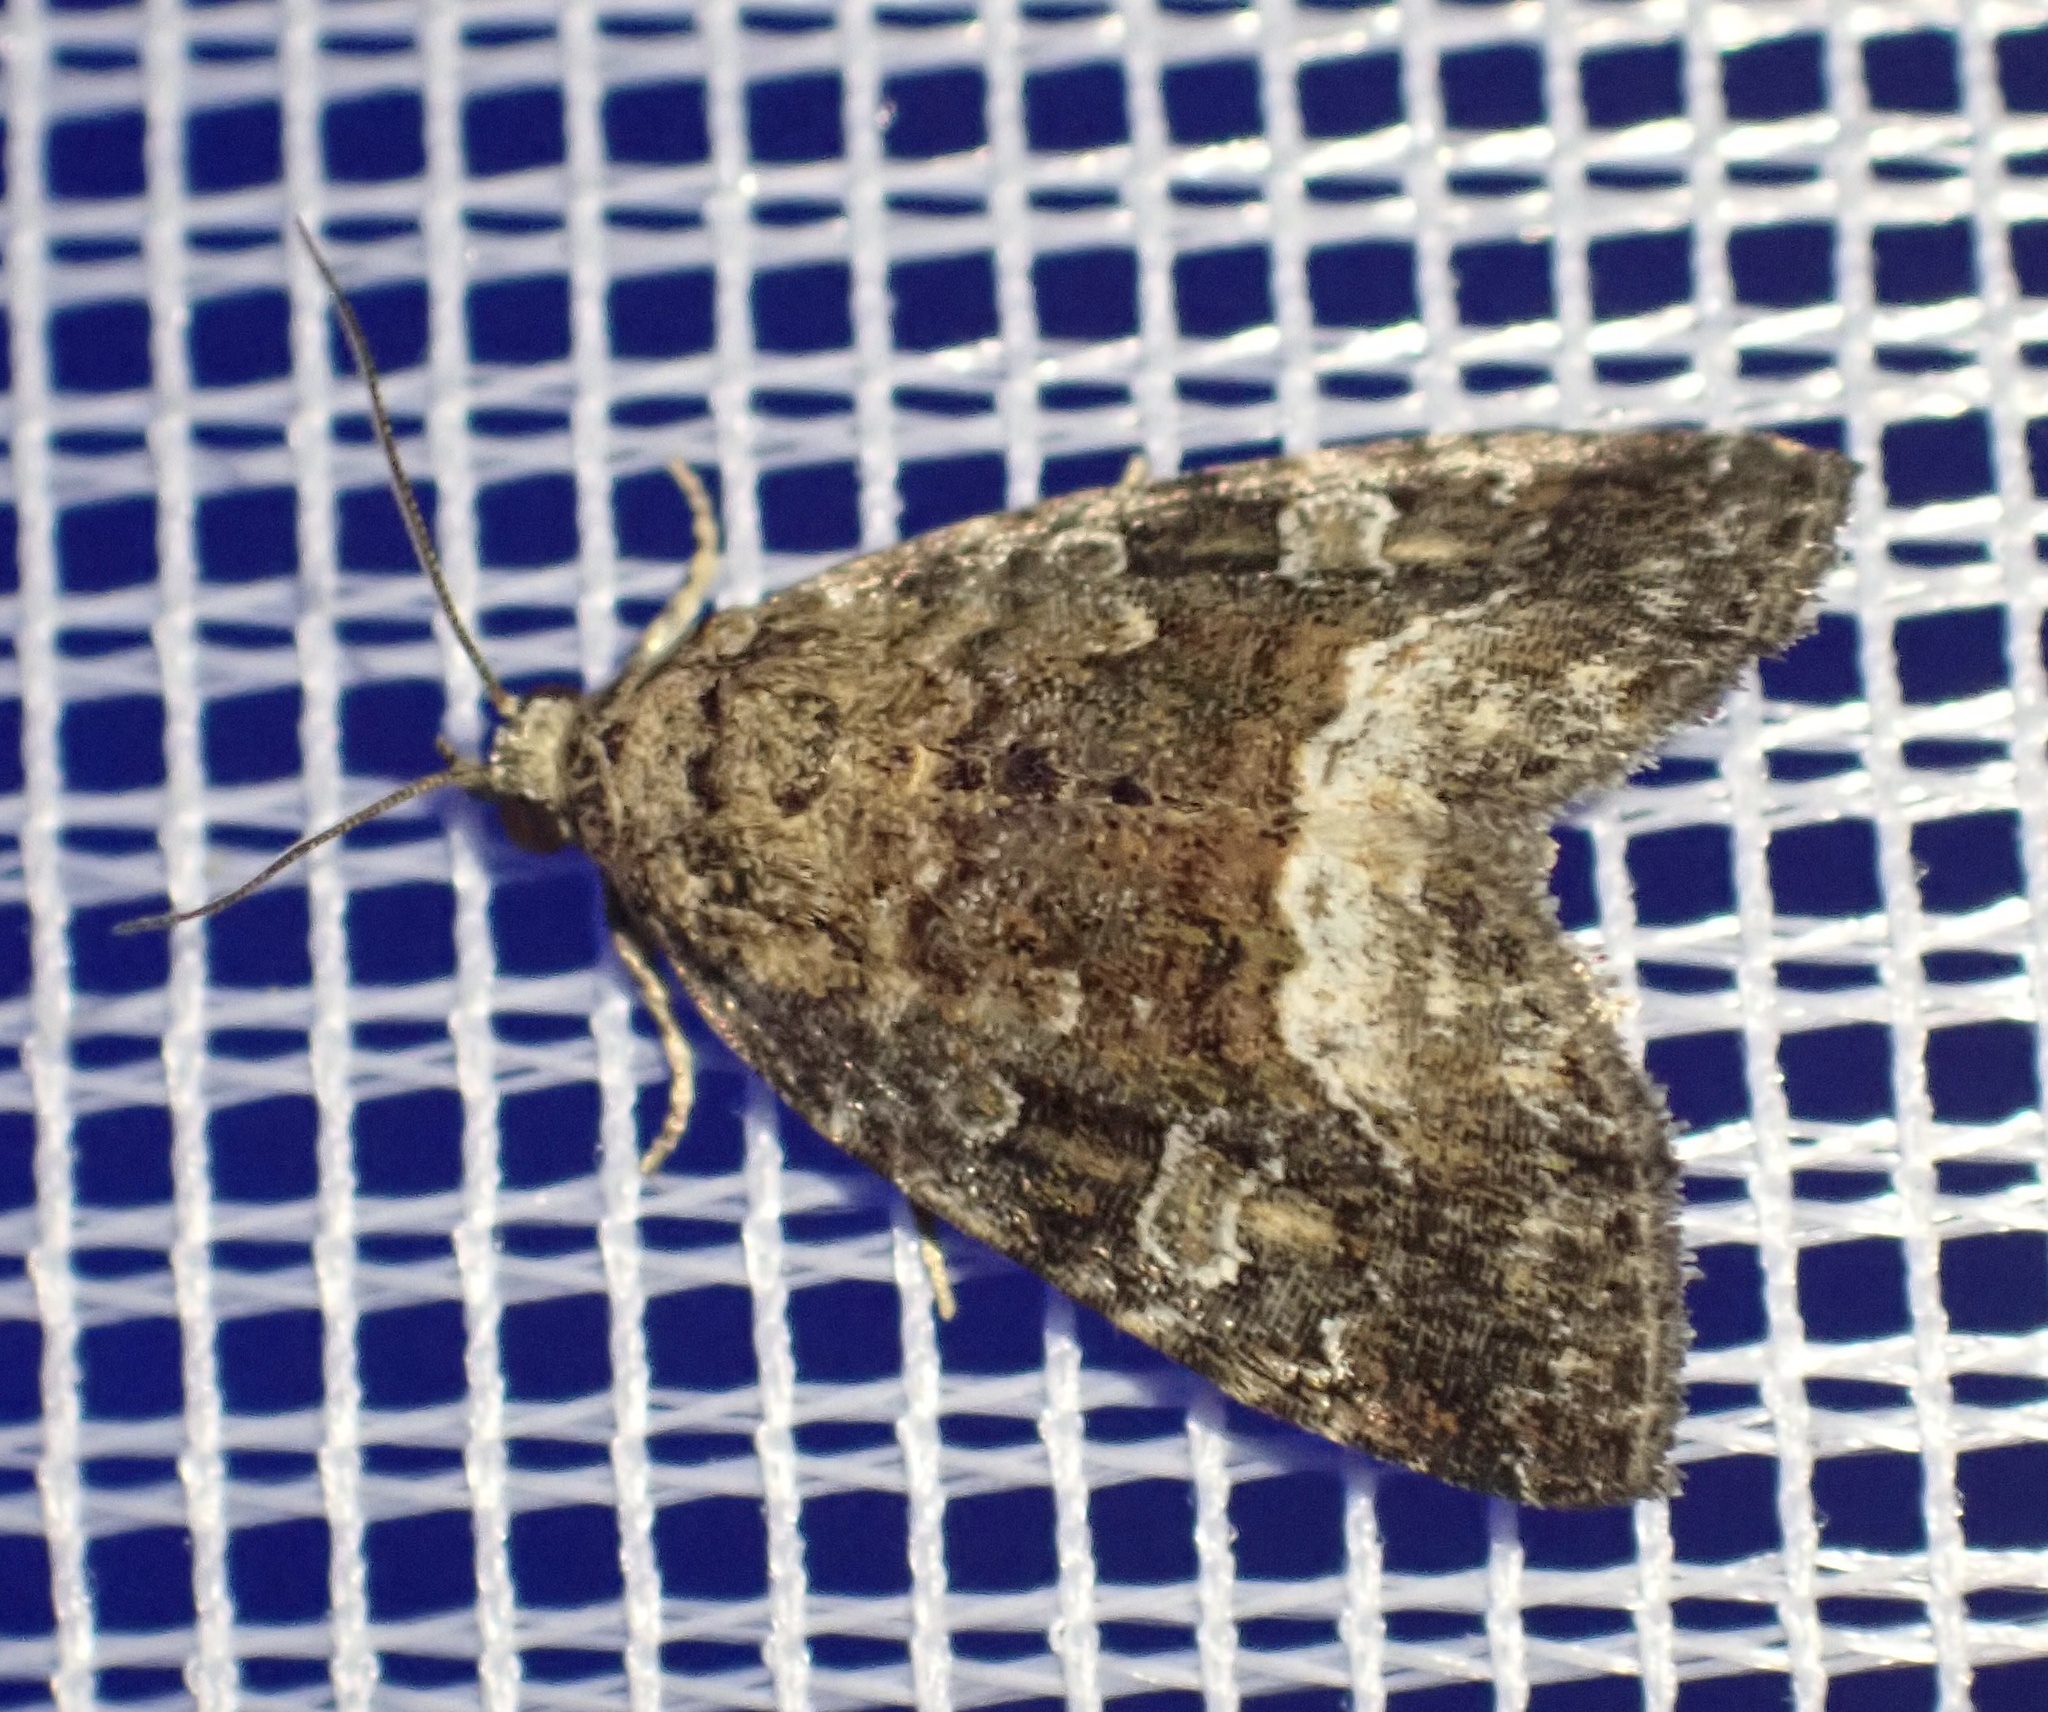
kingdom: Animalia
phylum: Arthropoda
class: Insecta
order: Lepidoptera
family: Noctuidae
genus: Deltote
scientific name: Deltote pygarga
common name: Marbled white spot
